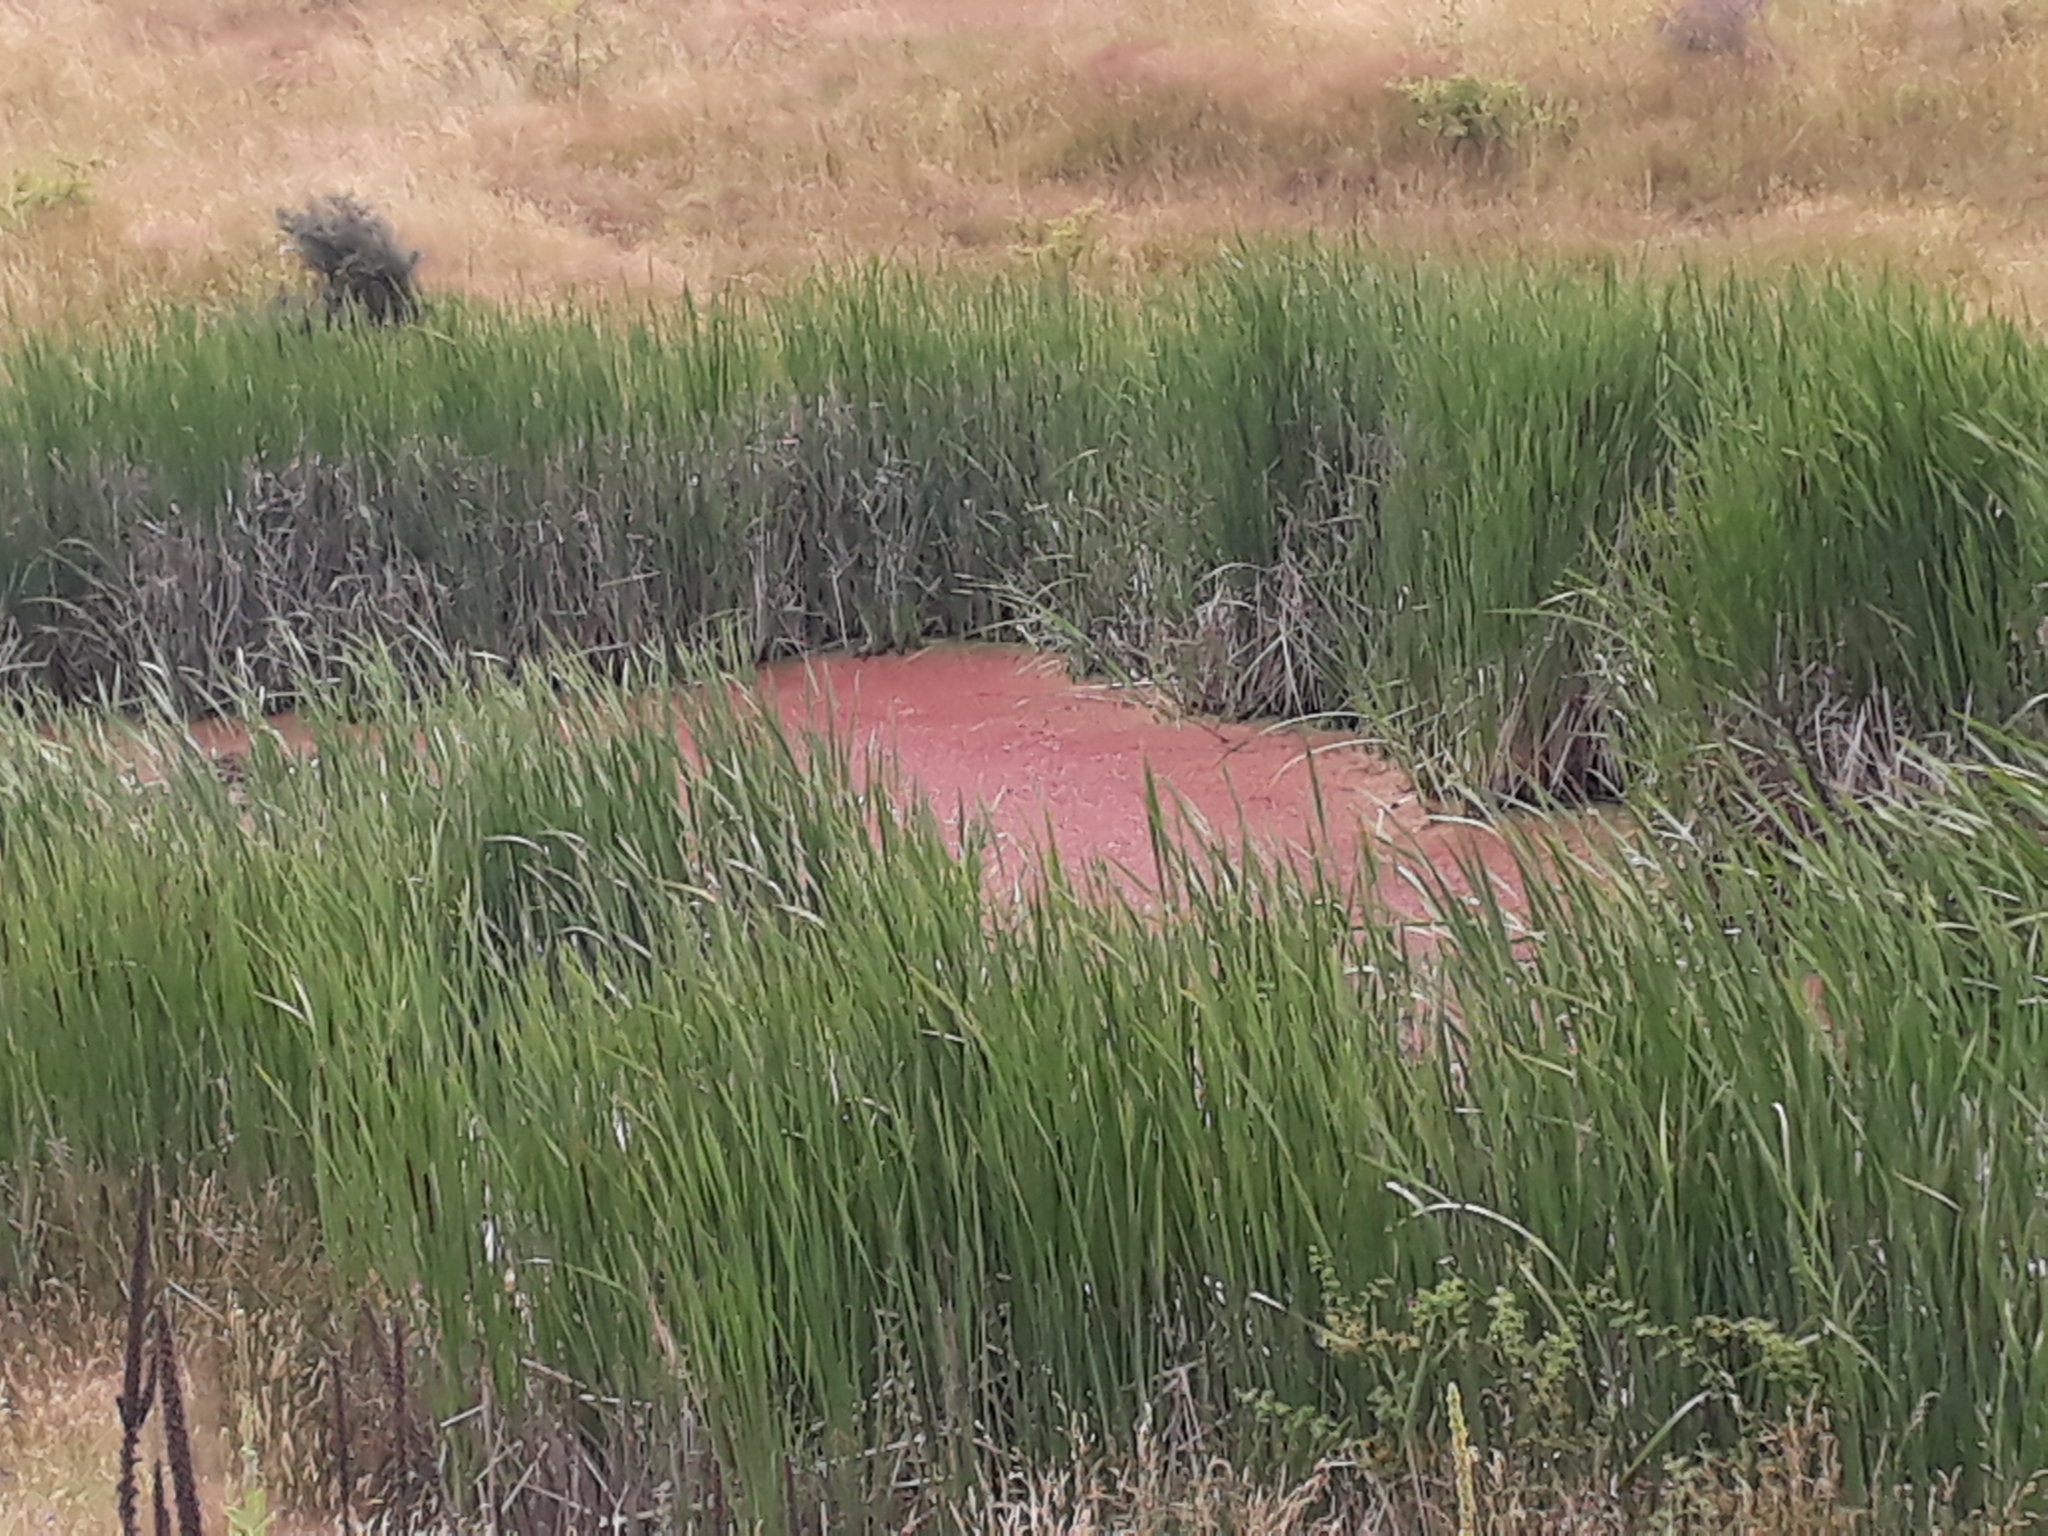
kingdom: Plantae
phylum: Tracheophyta
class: Polypodiopsida
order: Salviniales
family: Salviniaceae
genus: Azolla
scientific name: Azolla rubra
